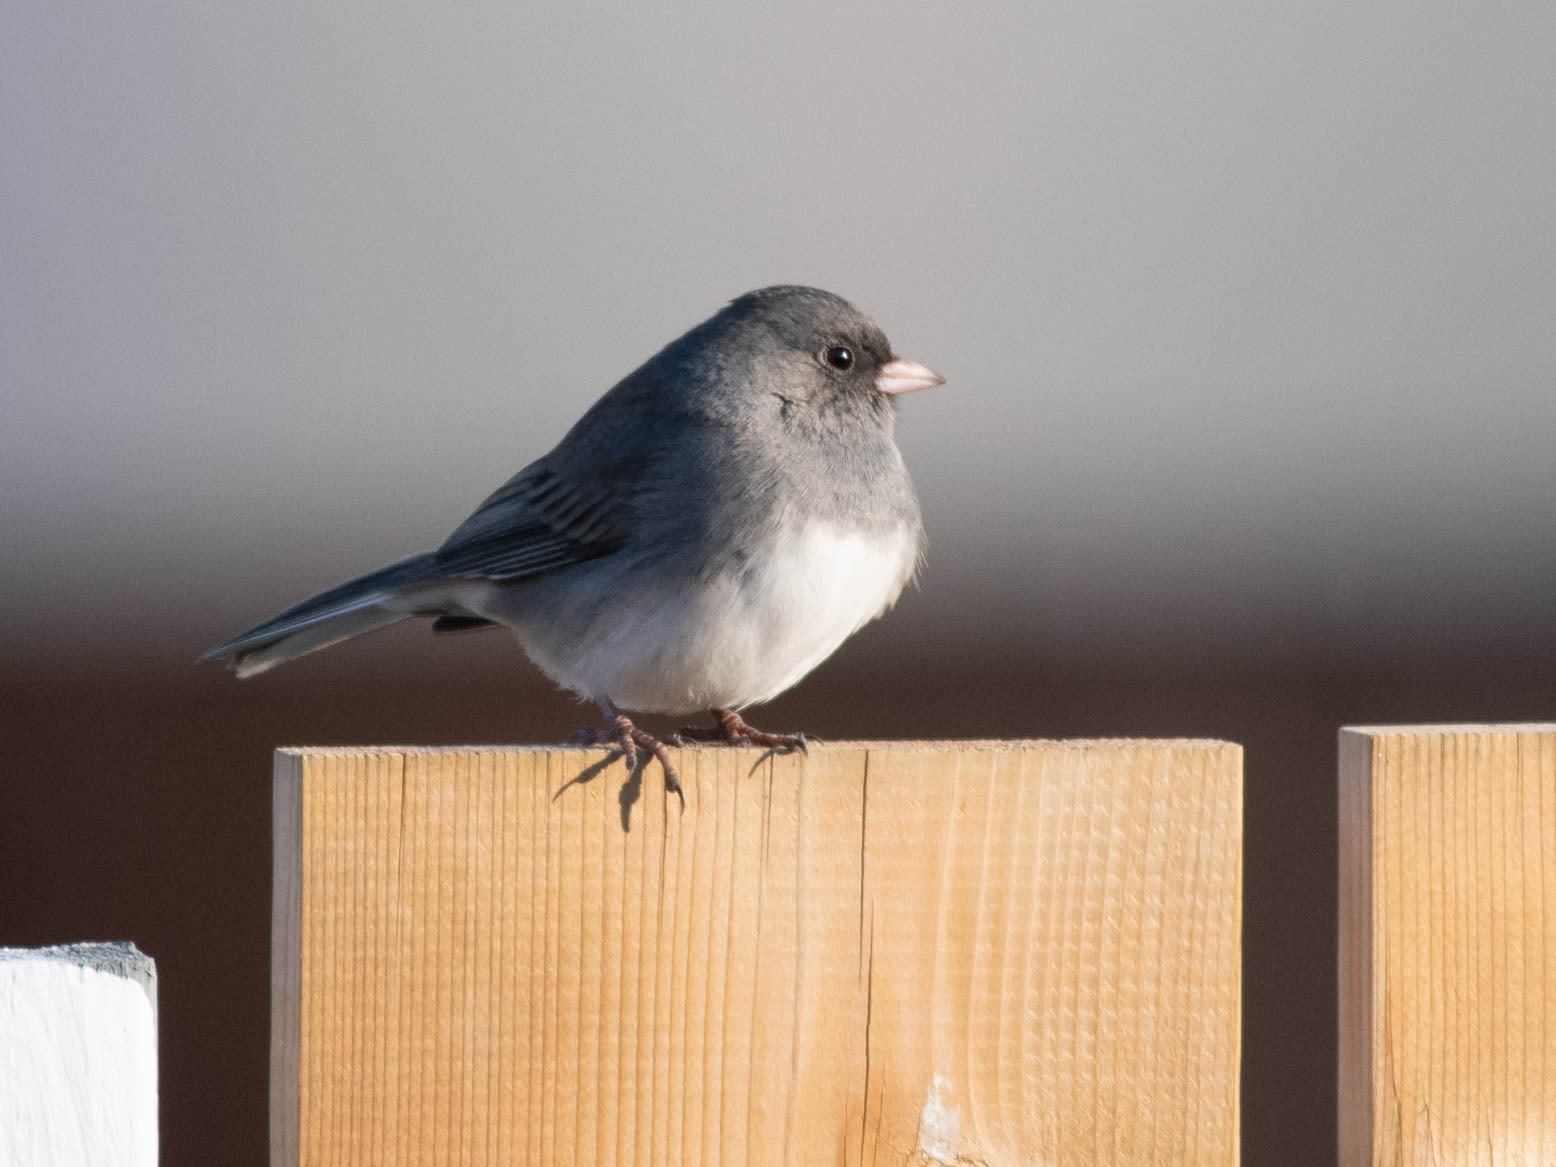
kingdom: Animalia
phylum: Chordata
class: Aves
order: Passeriformes
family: Passerellidae
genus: Junco
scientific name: Junco hyemalis
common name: Dark-eyed junco
